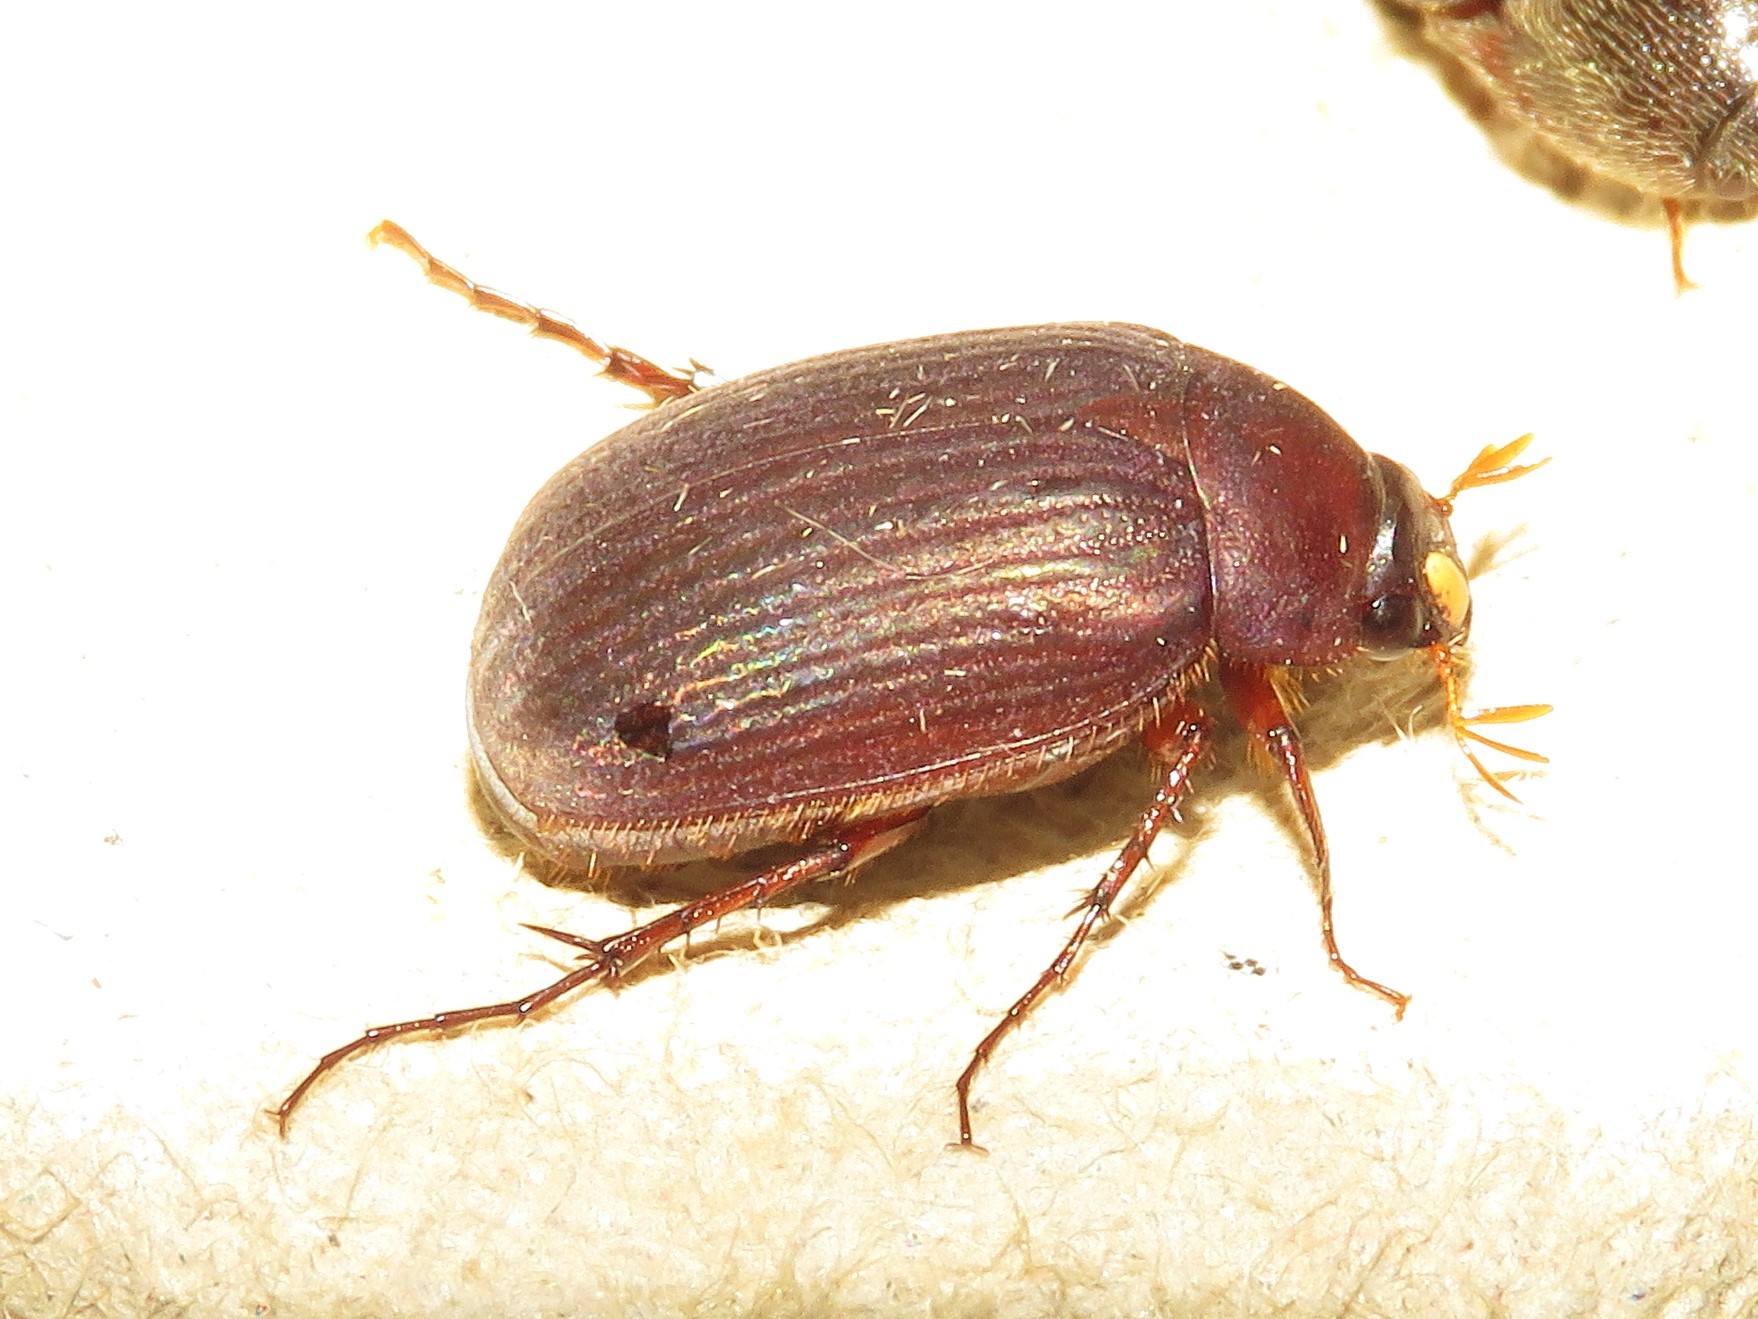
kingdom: Animalia
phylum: Arthropoda
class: Insecta
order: Coleoptera
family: Scarabaeidae
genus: Maladera
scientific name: Maladera formosae
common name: Asiatic garden beetle
